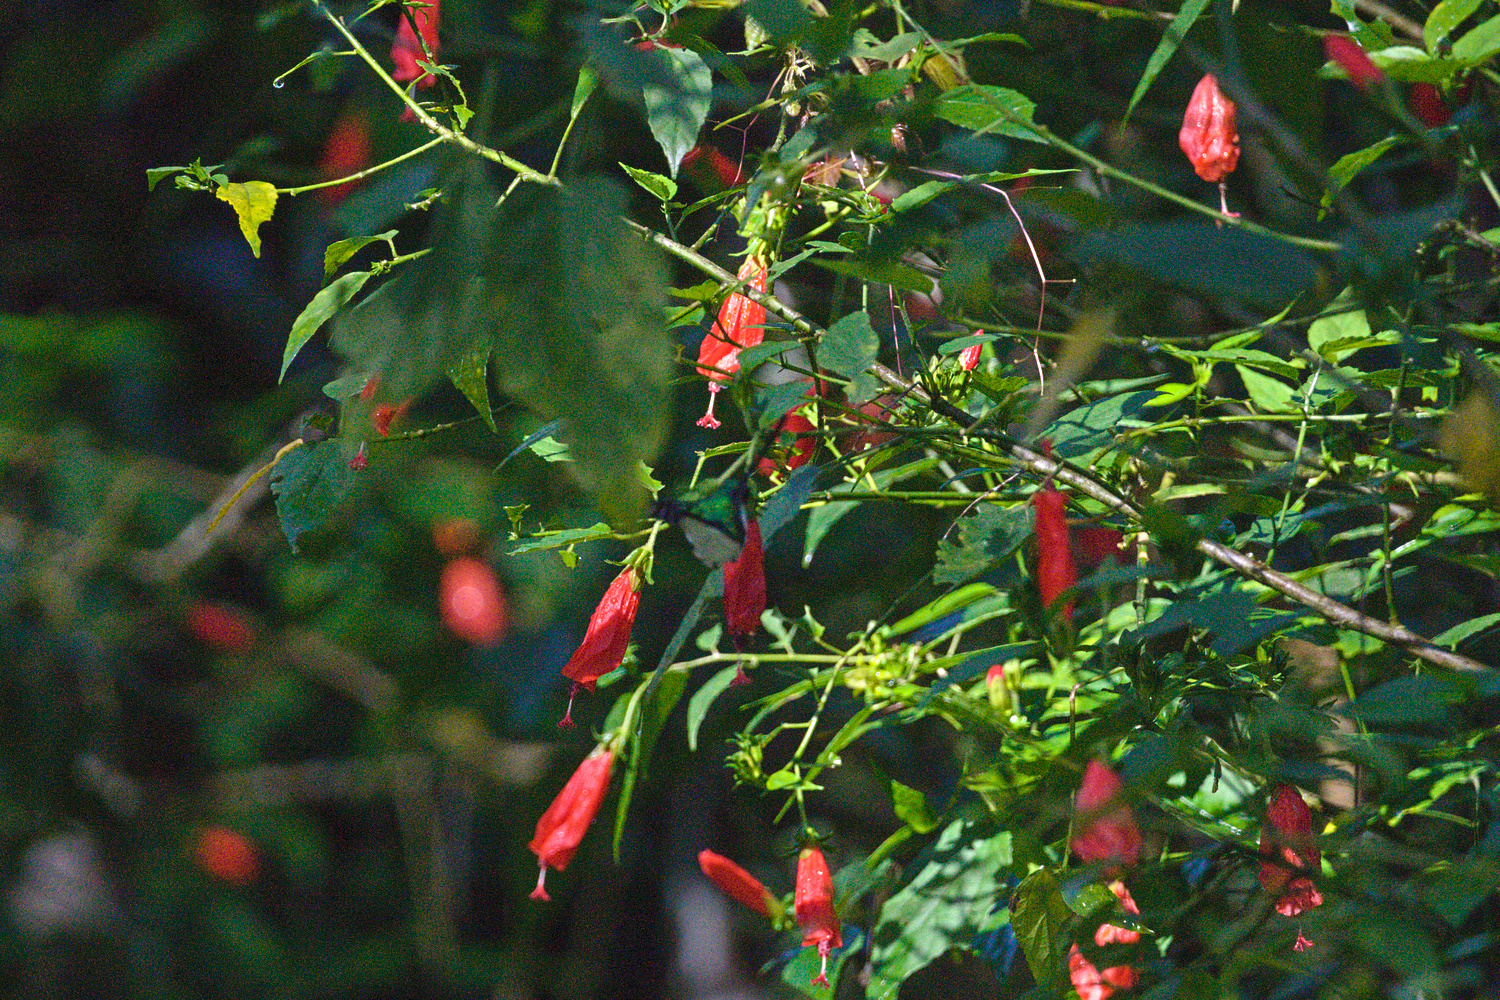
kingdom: Animalia
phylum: Chordata
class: Aves
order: Apodiformes
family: Trochilidae
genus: Heliothryx
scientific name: Heliothryx barroti
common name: Purple-crowned fairy
